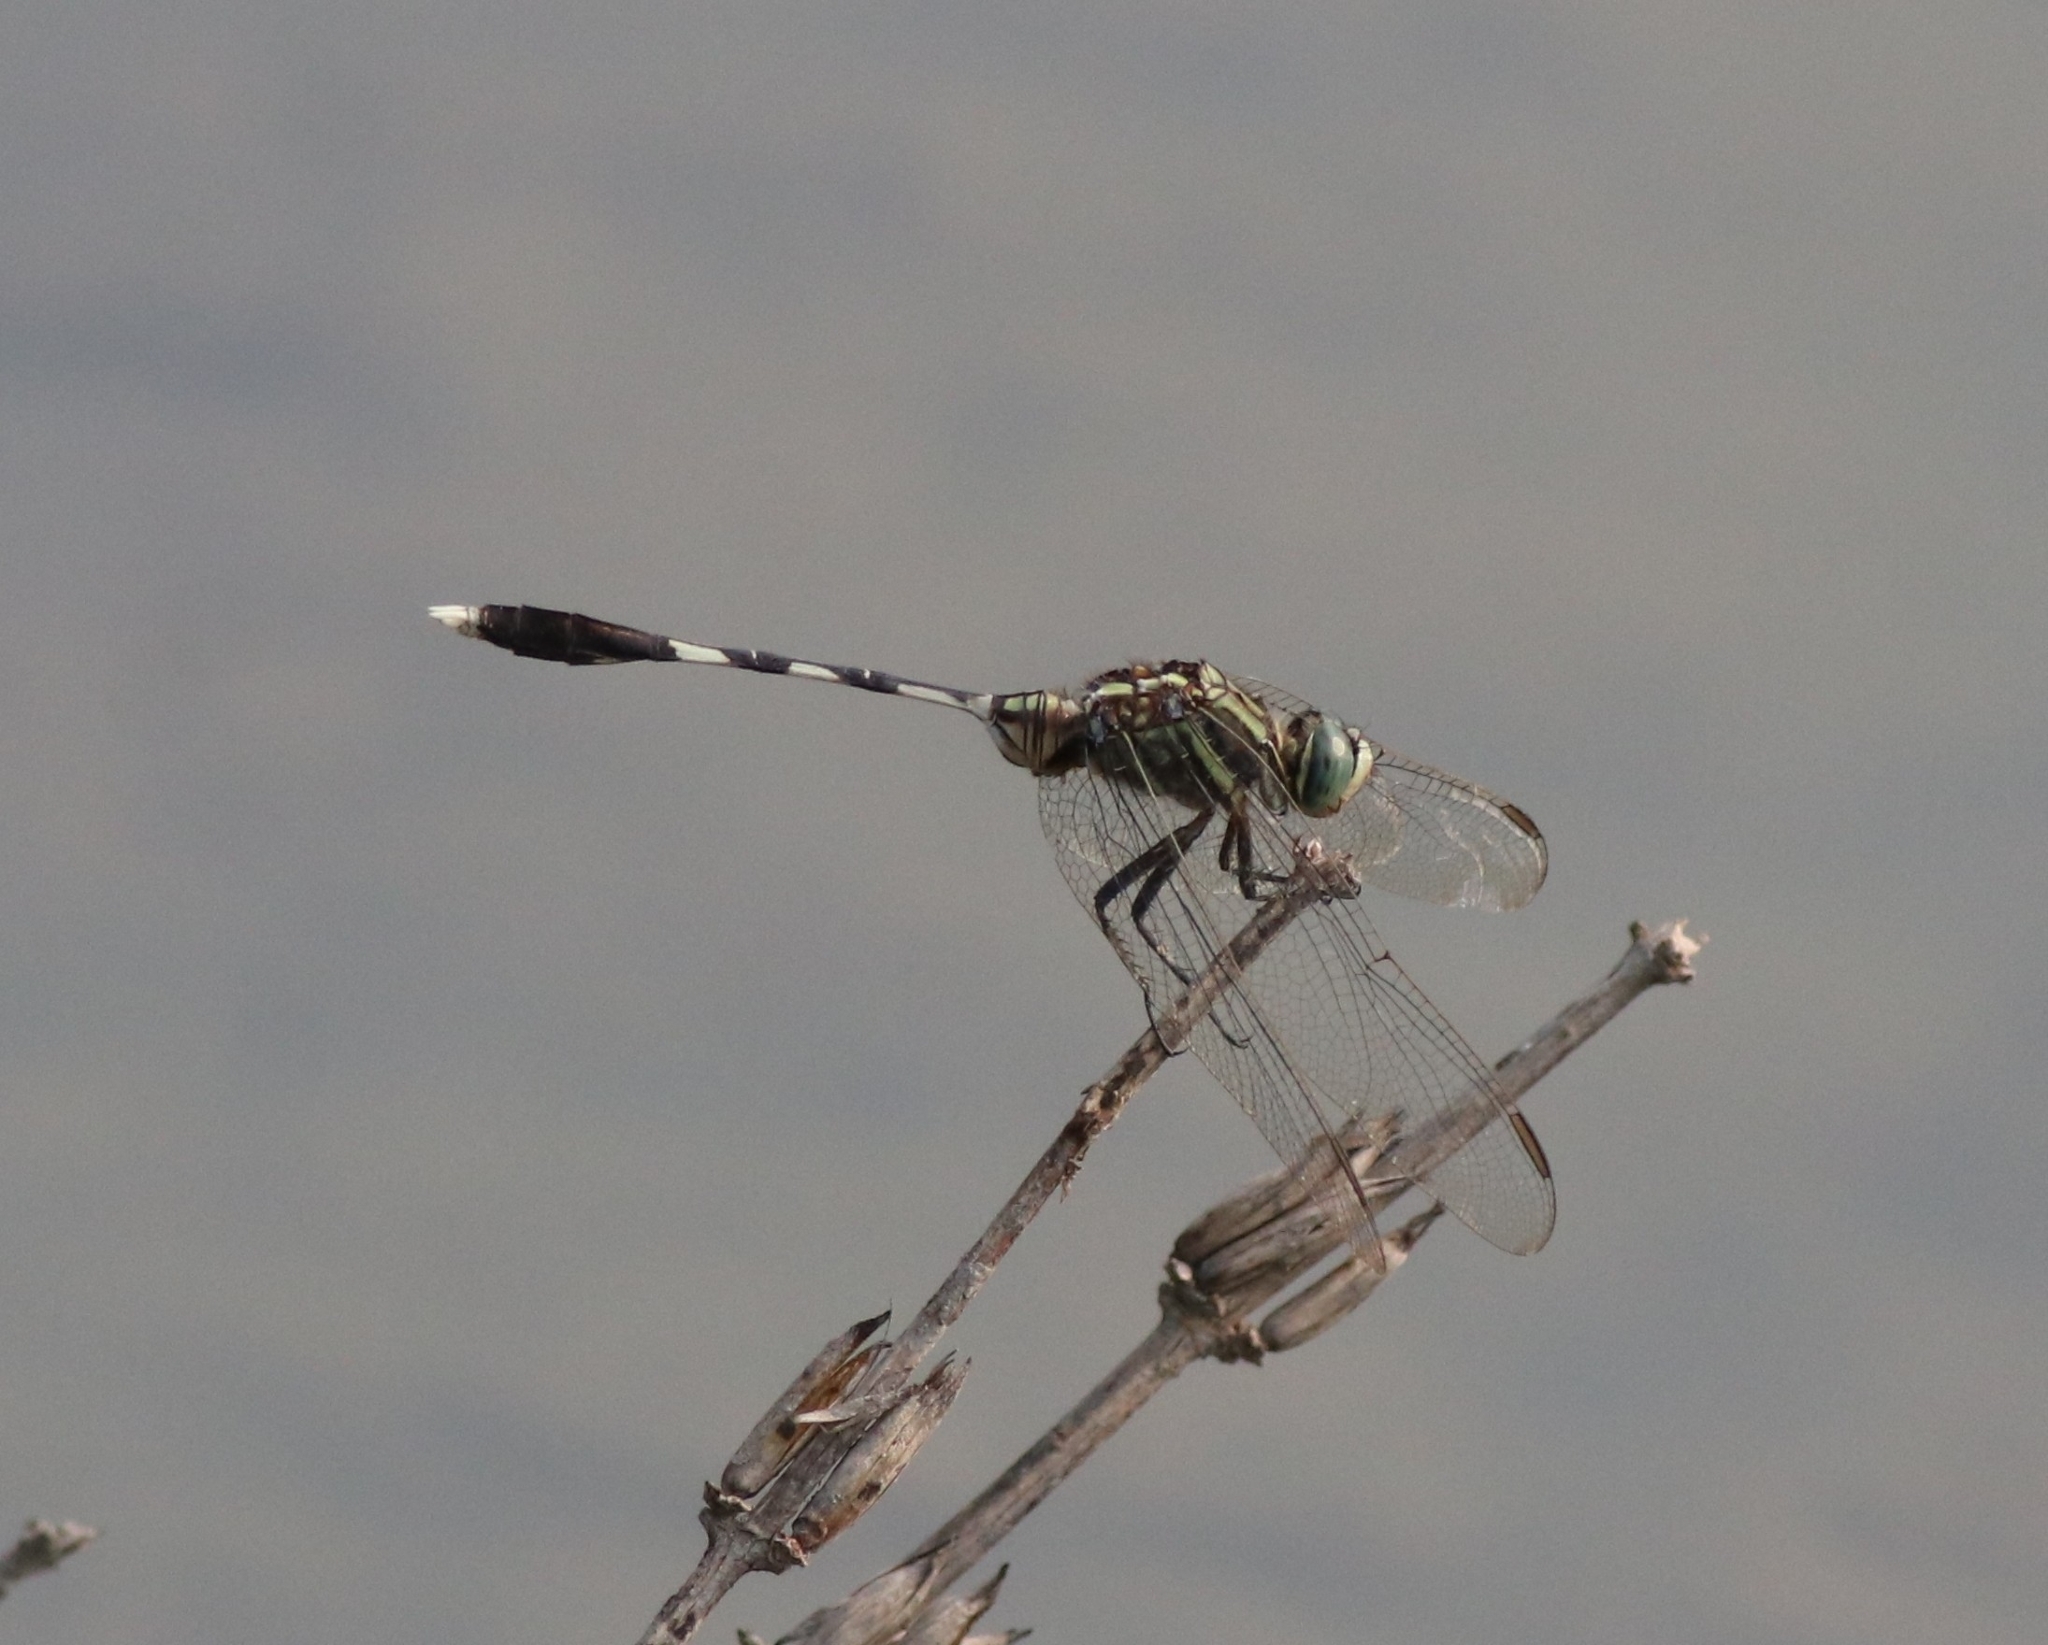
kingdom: Animalia
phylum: Arthropoda
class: Insecta
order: Odonata
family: Libellulidae
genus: Orthetrum
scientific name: Orthetrum sabina
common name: Slender skimmer
